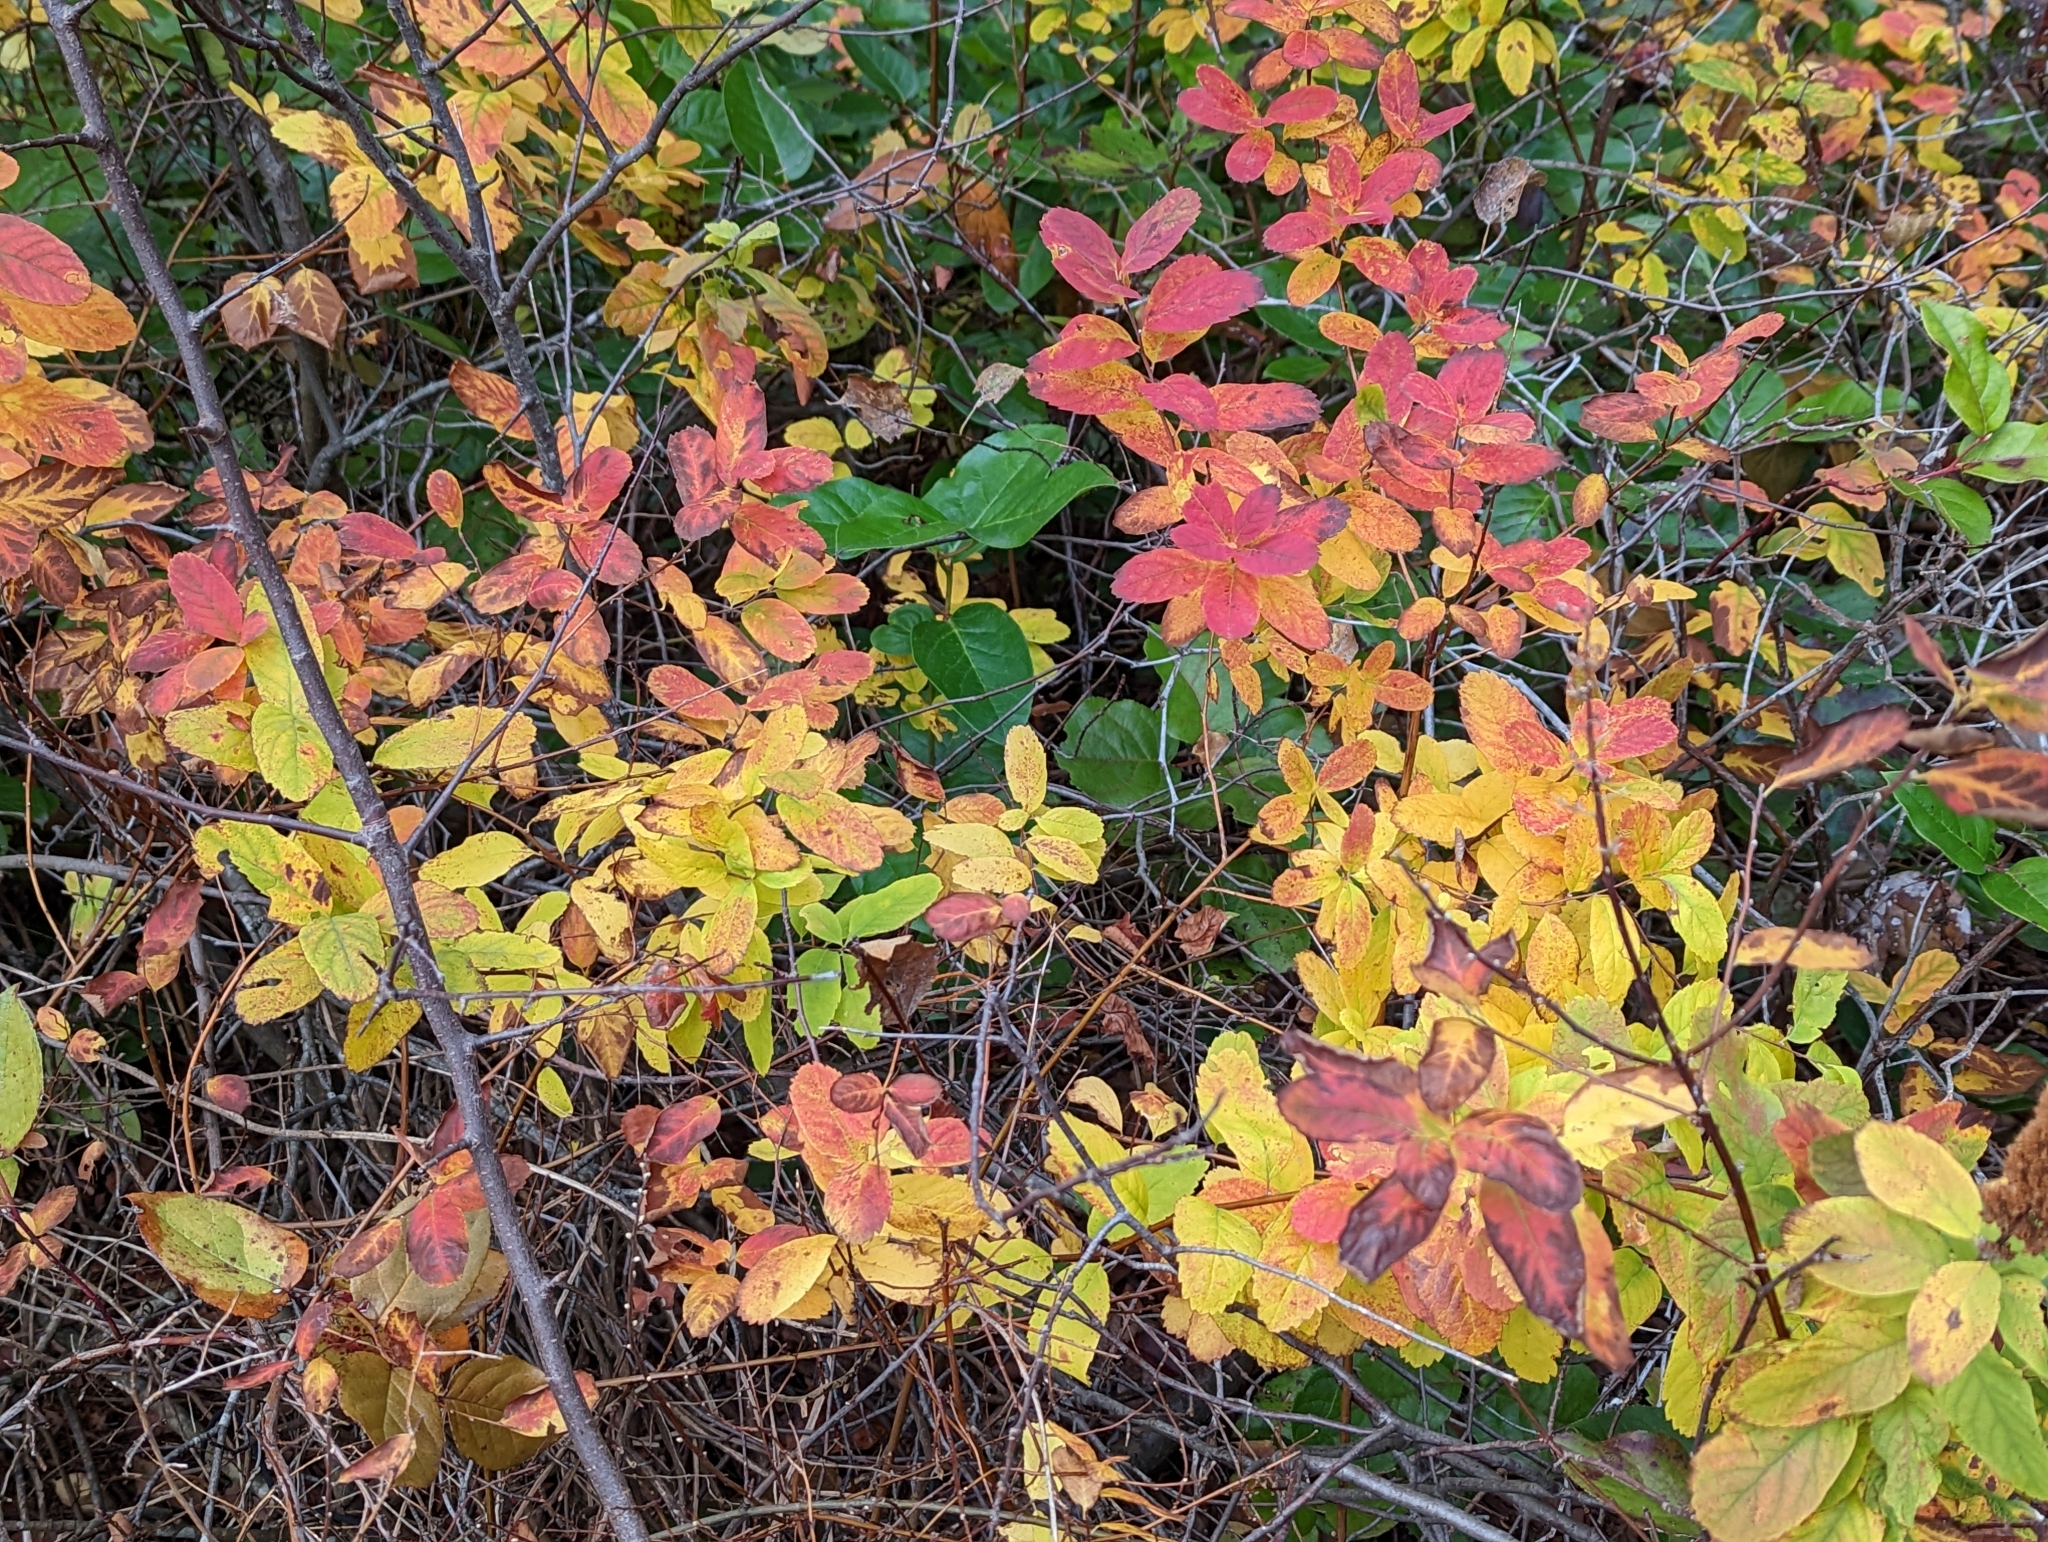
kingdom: Plantae
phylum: Tracheophyta
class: Magnoliopsida
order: Rosales
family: Rosaceae
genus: Spiraea
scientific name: Spiraea douglasii
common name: Steeplebush
